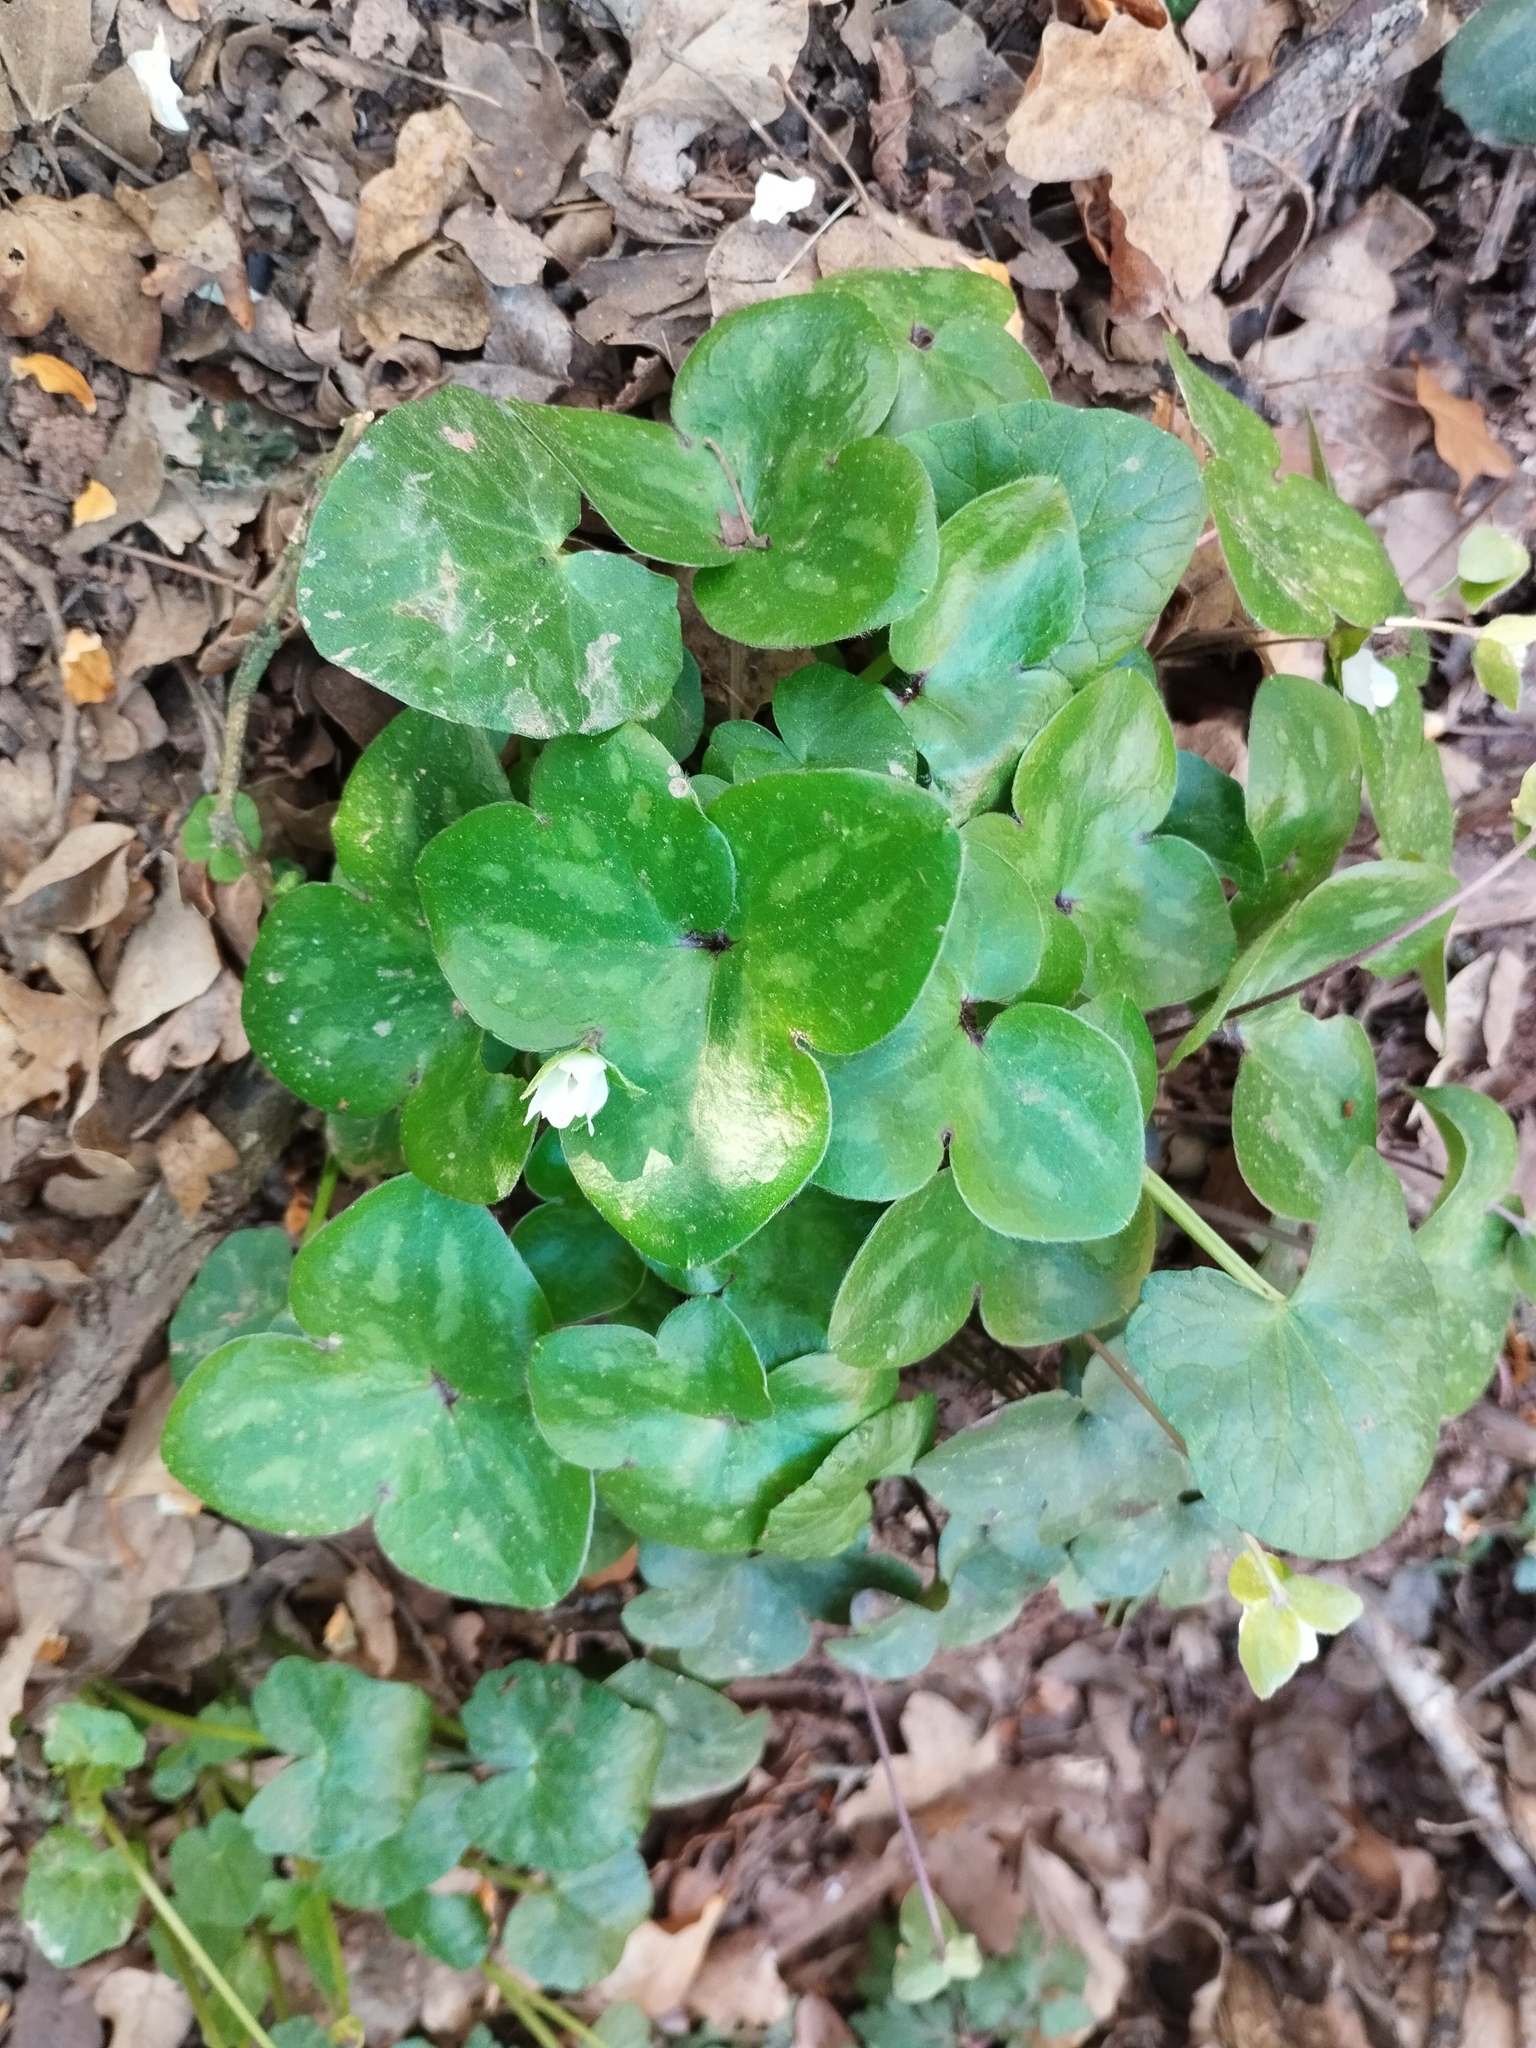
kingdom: Plantae
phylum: Tracheophyta
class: Magnoliopsida
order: Ranunculales
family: Ranunculaceae
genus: Hepatica
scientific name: Hepatica nobilis
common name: Liverleaf
